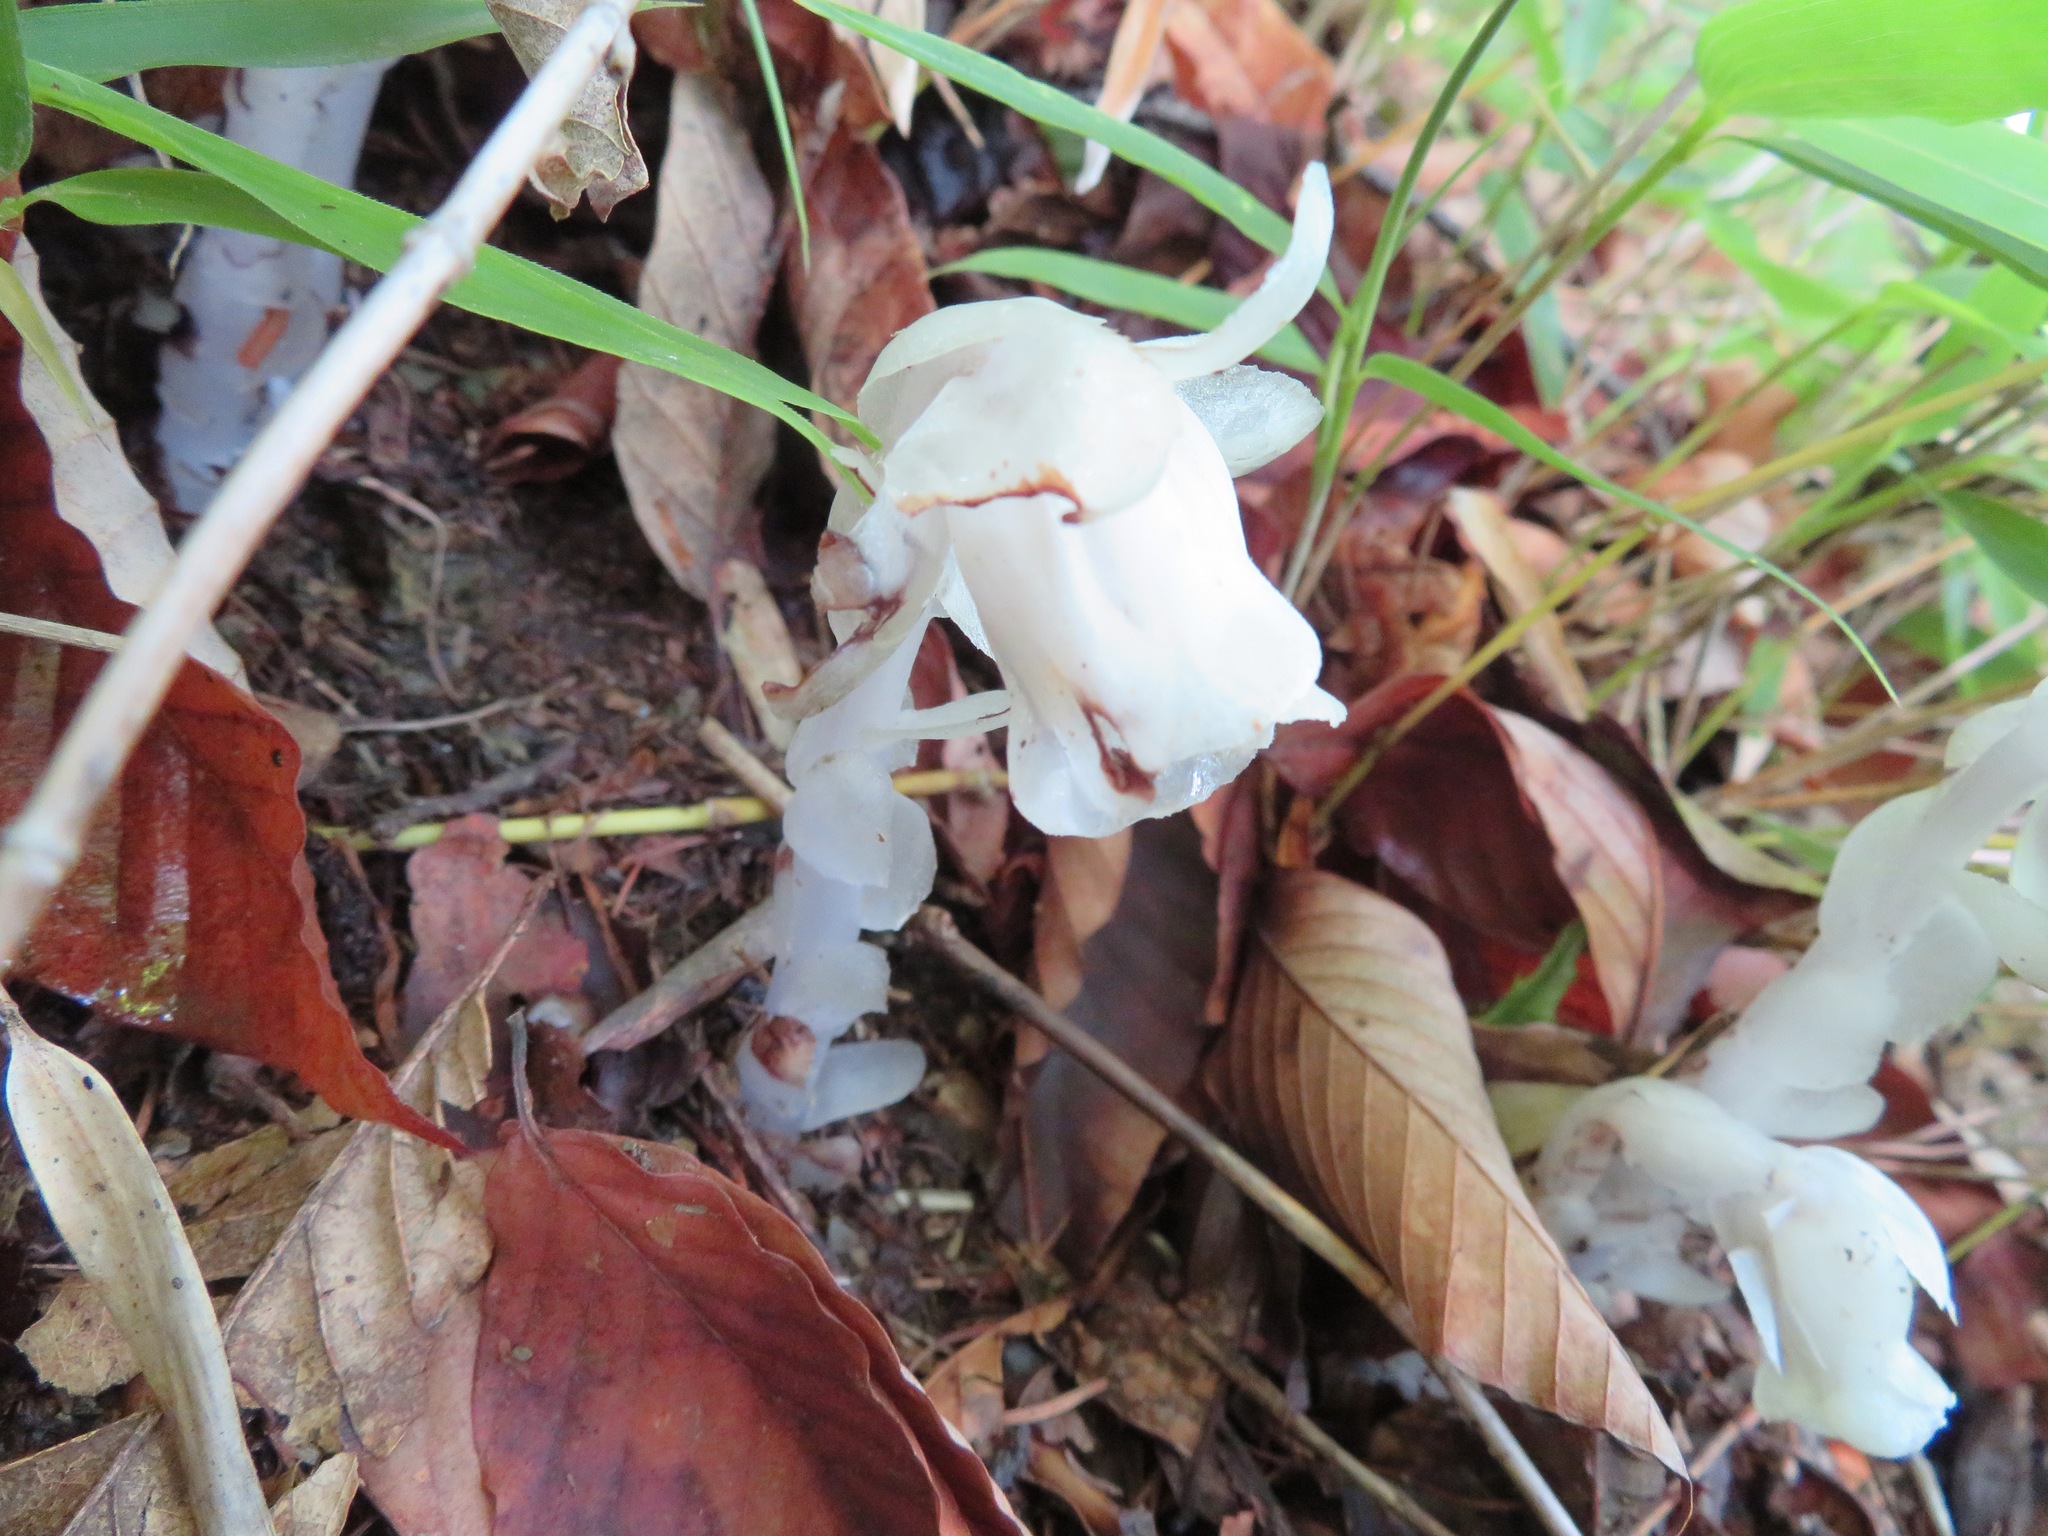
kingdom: Plantae
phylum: Tracheophyta
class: Magnoliopsida
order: Ericales
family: Ericaceae
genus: Monotropastrum
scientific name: Monotropastrum humile
